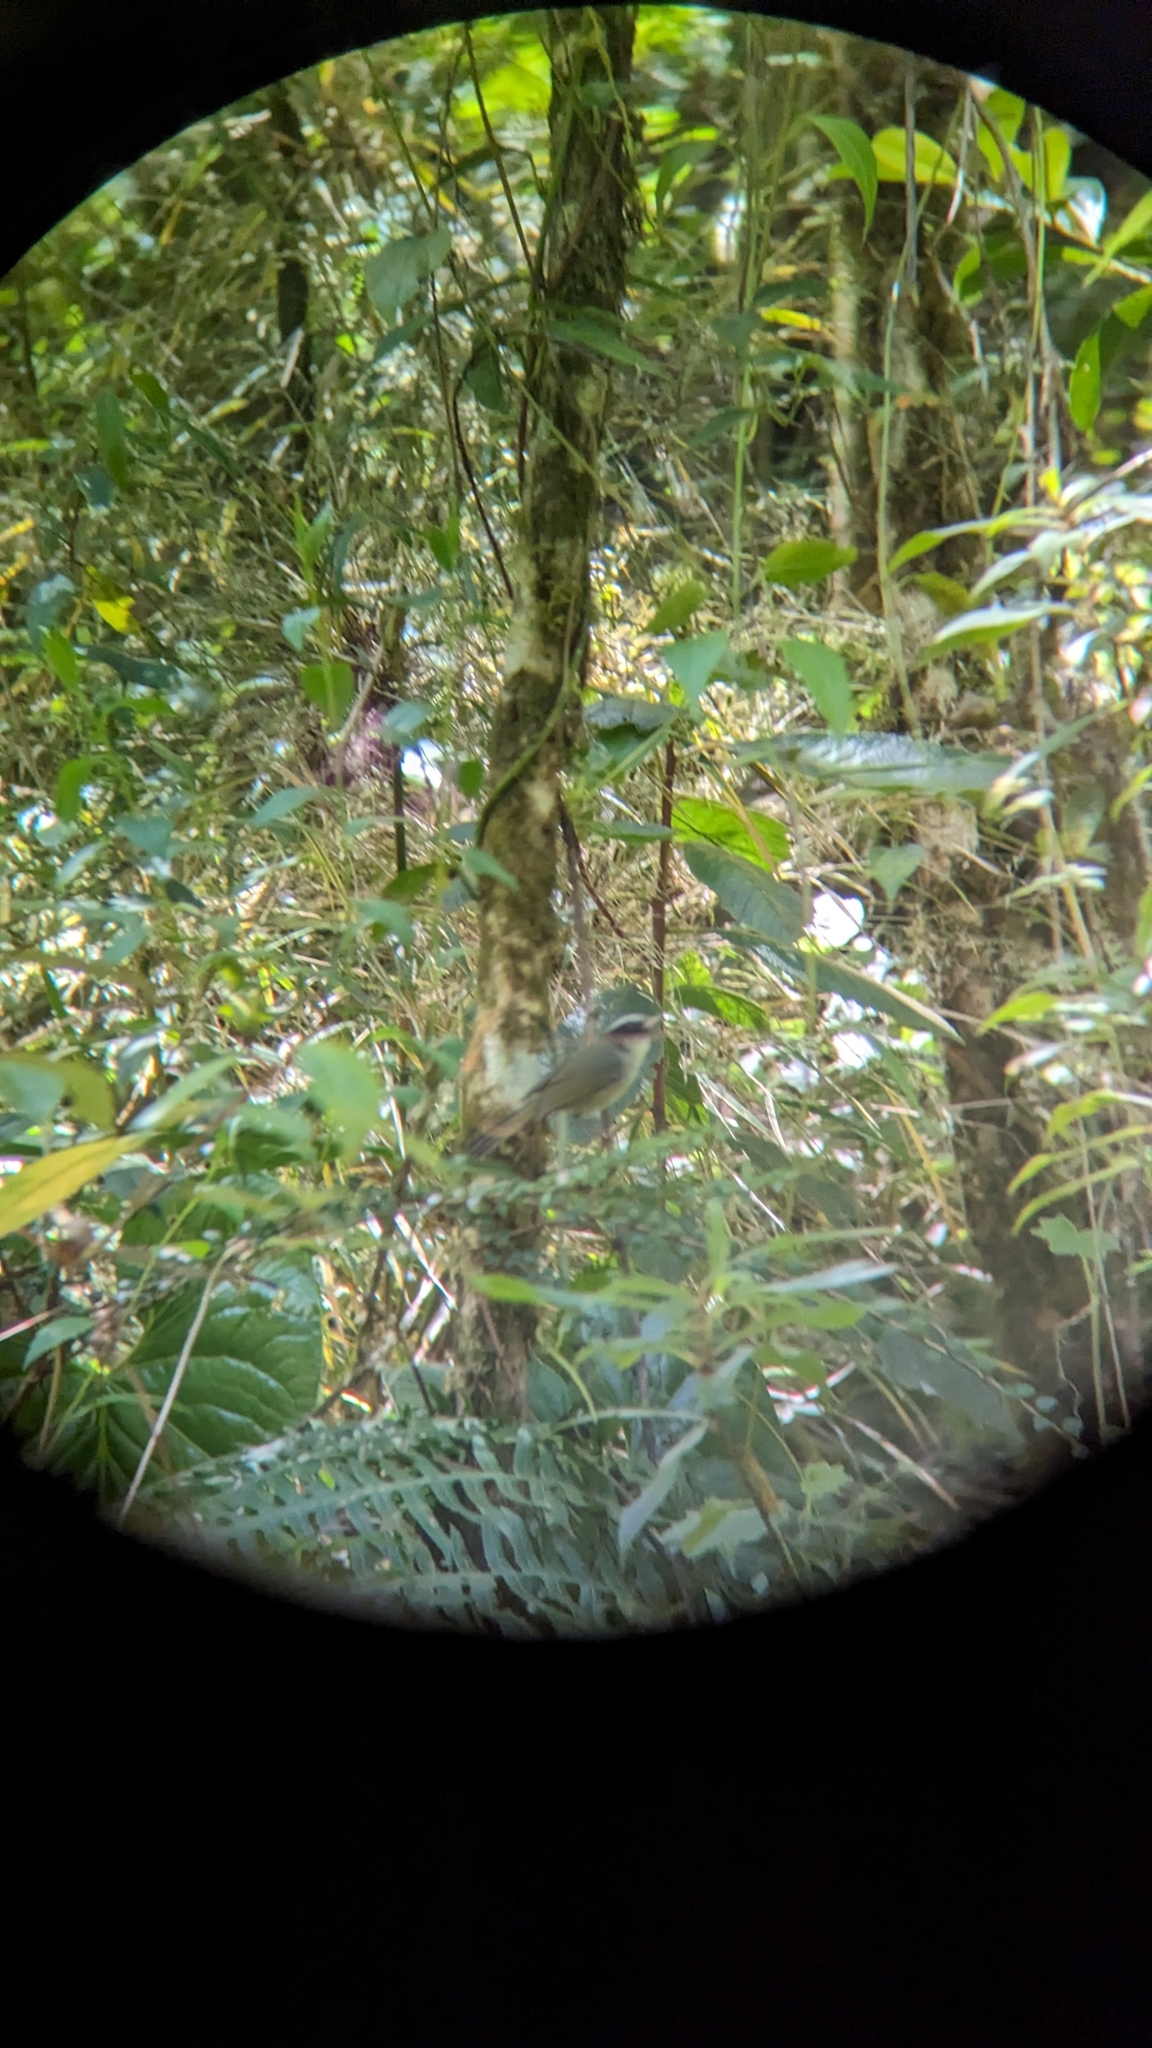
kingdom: Animalia
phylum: Chordata
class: Aves
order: Passeriformes
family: Parulidae
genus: Basileuterus
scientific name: Basileuterus melanogenys
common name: Black-cheeked warbler
